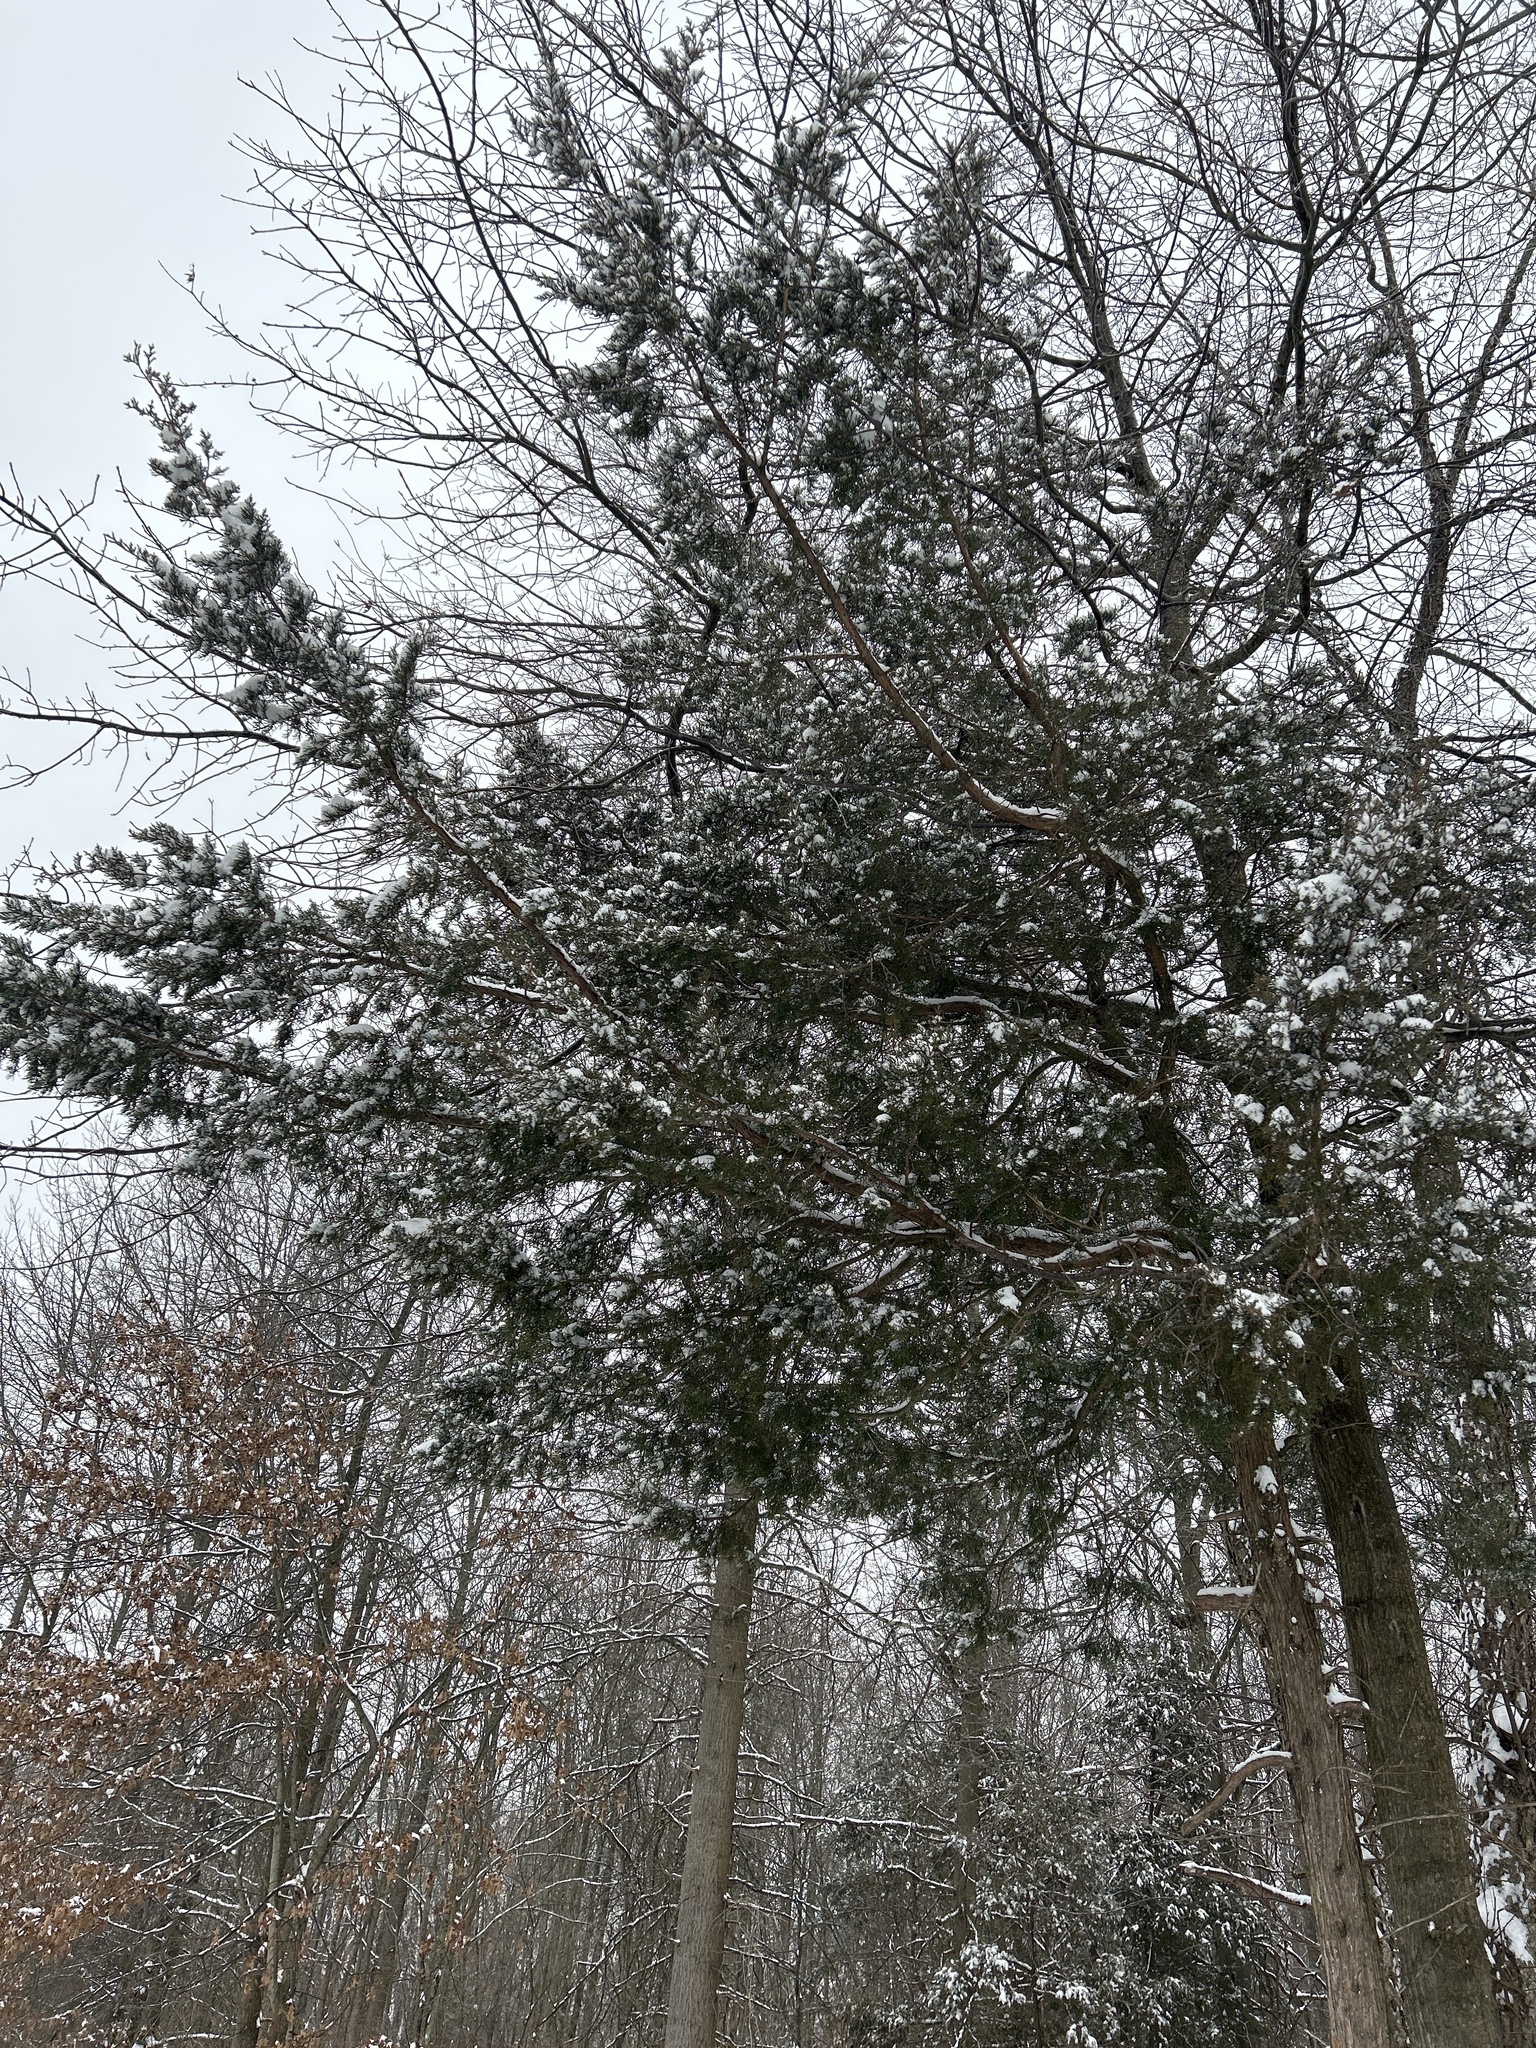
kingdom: Plantae
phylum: Tracheophyta
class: Pinopsida
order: Pinales
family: Cupressaceae
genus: Juniperus
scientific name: Juniperus virginiana
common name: Red juniper
